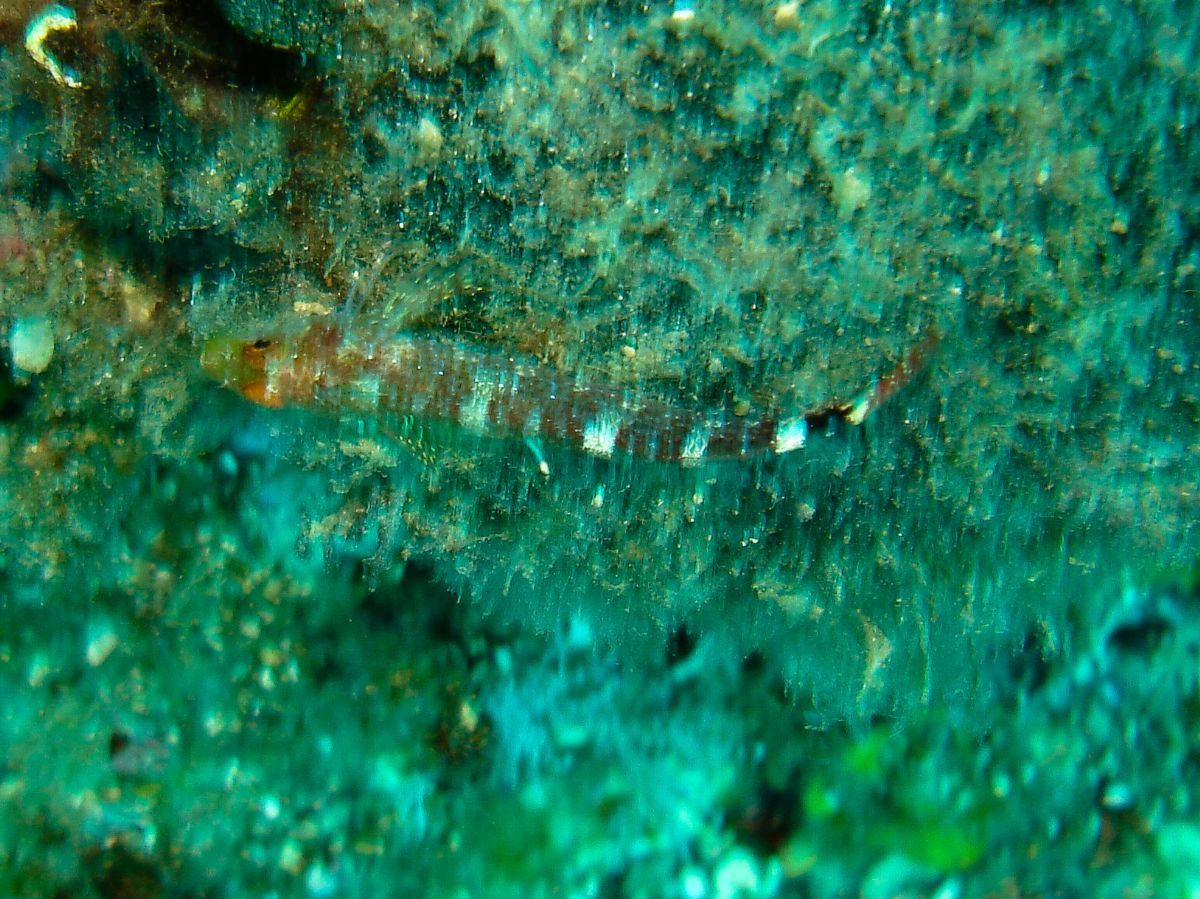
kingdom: Animalia
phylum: Chordata
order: Perciformes
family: Tripterygiidae
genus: Tripterygion
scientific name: Tripterygion delaisi
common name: Black-face blenny
